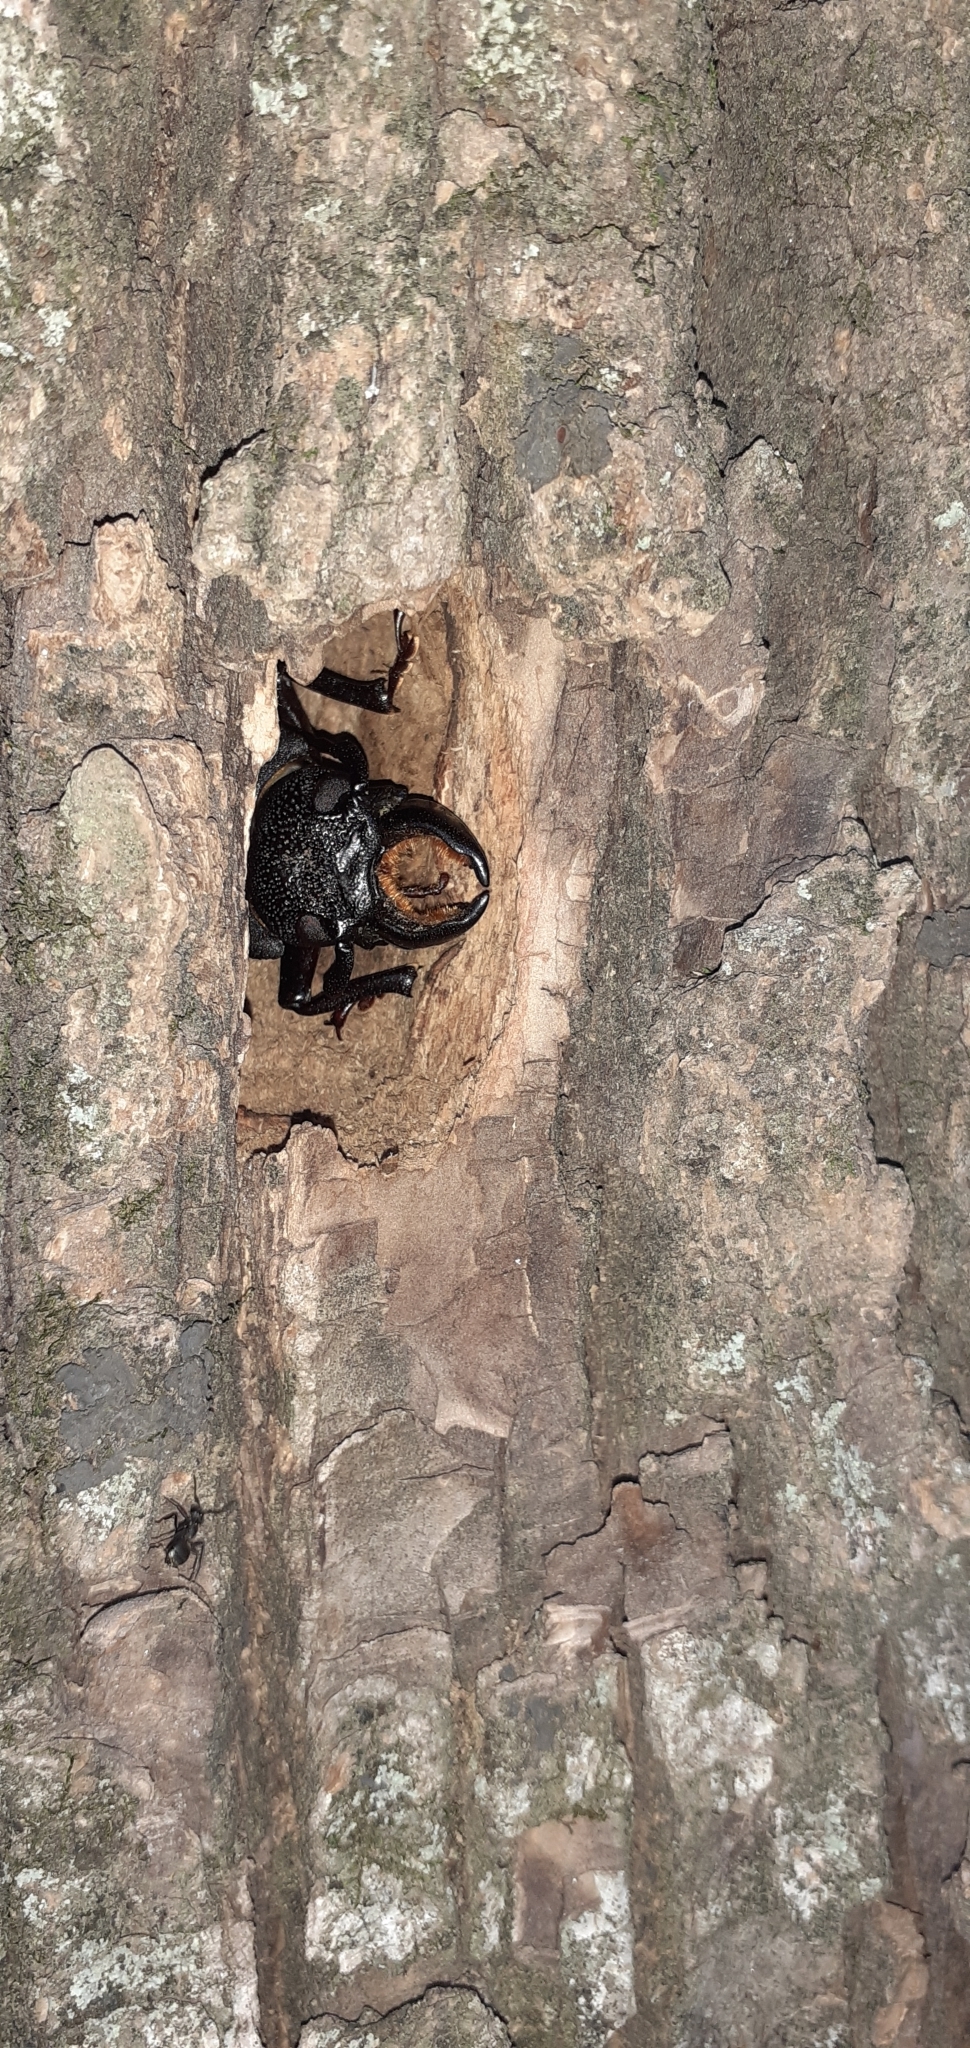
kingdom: Animalia
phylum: Arthropoda
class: Insecta
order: Coleoptera
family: Cerambycidae
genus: Mallodon
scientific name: Mallodon dasystomum
